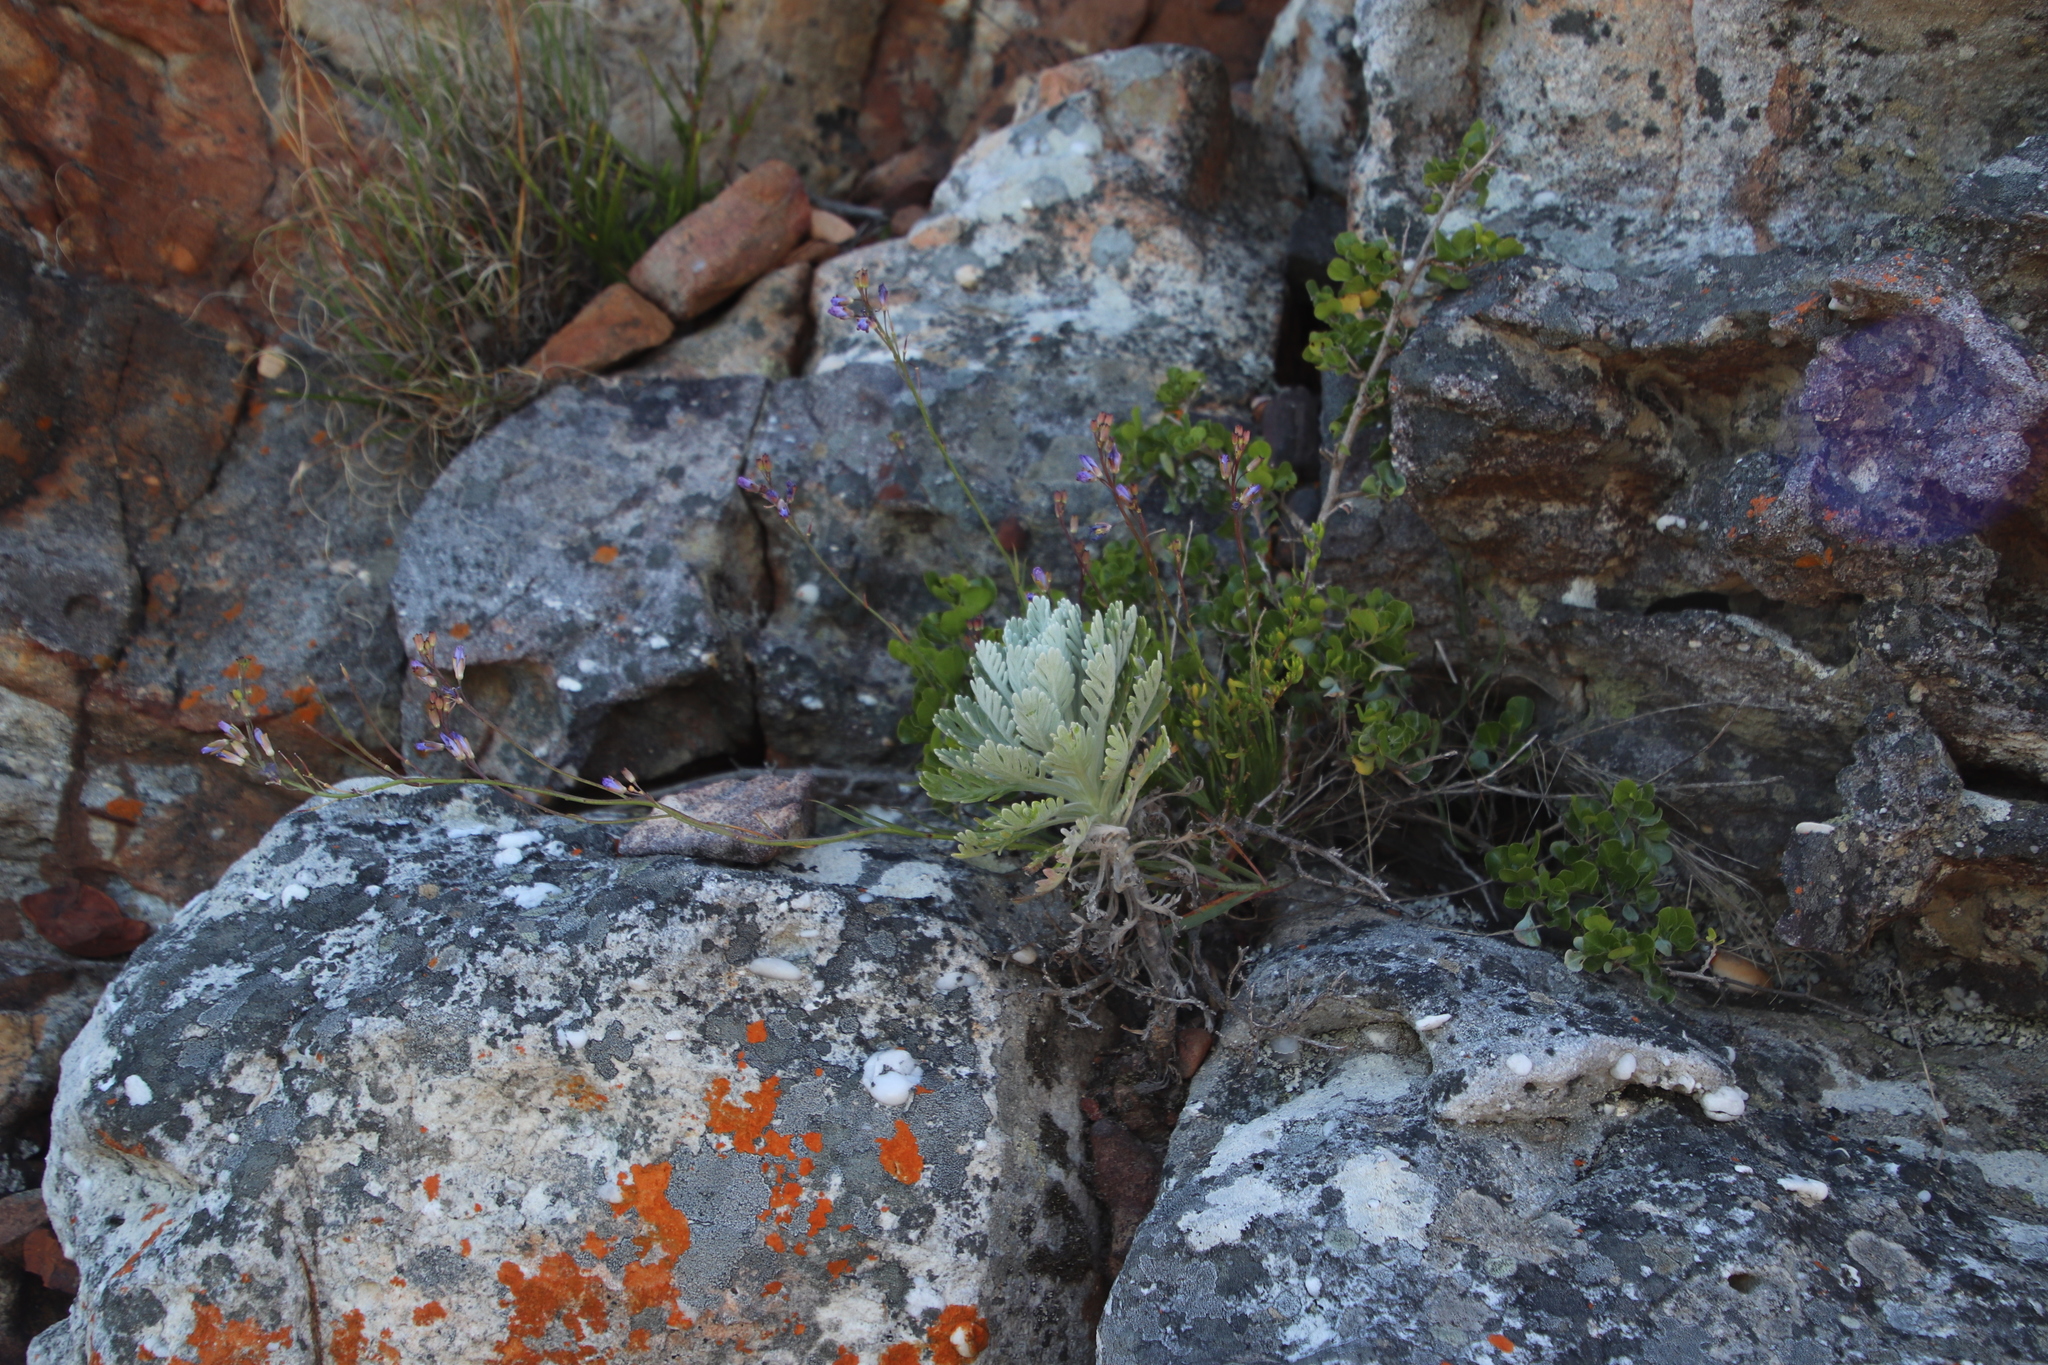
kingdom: Plantae
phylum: Tracheophyta
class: Magnoliopsida
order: Asterales
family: Asteraceae
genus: Euryops
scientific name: Euryops pectinatus
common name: Gray-leaf euryops
